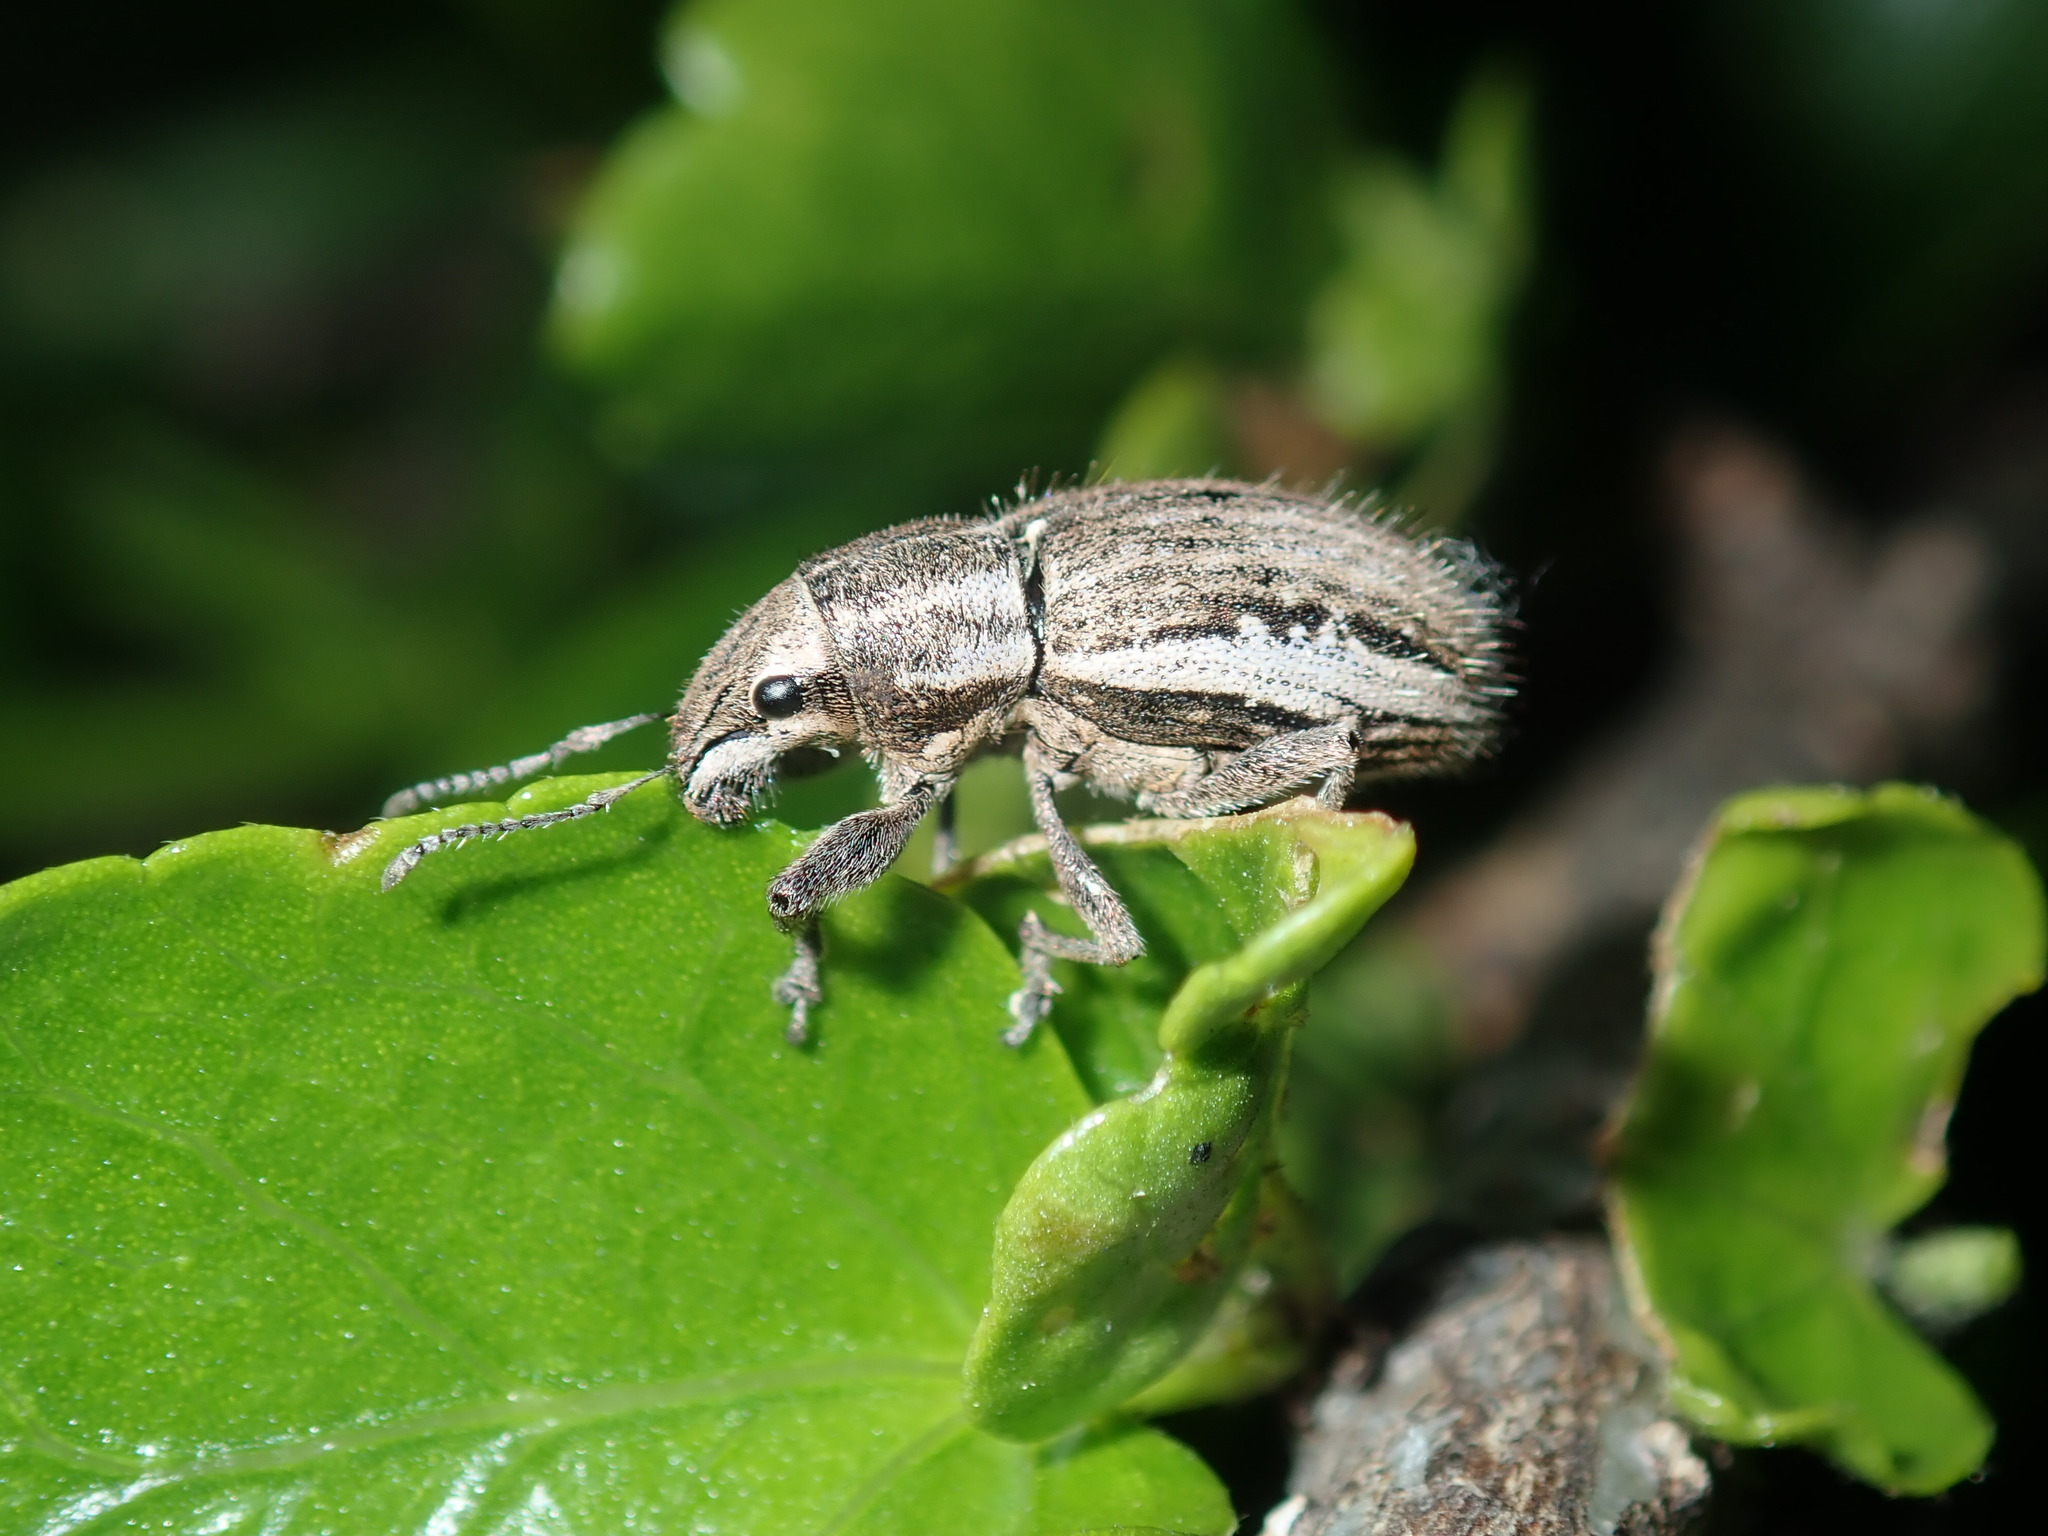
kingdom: Animalia
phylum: Arthropoda
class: Insecta
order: Coleoptera
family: Curculionidae
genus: Naupactus
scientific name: Naupactus leucoloma
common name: Whitefringed beetle
